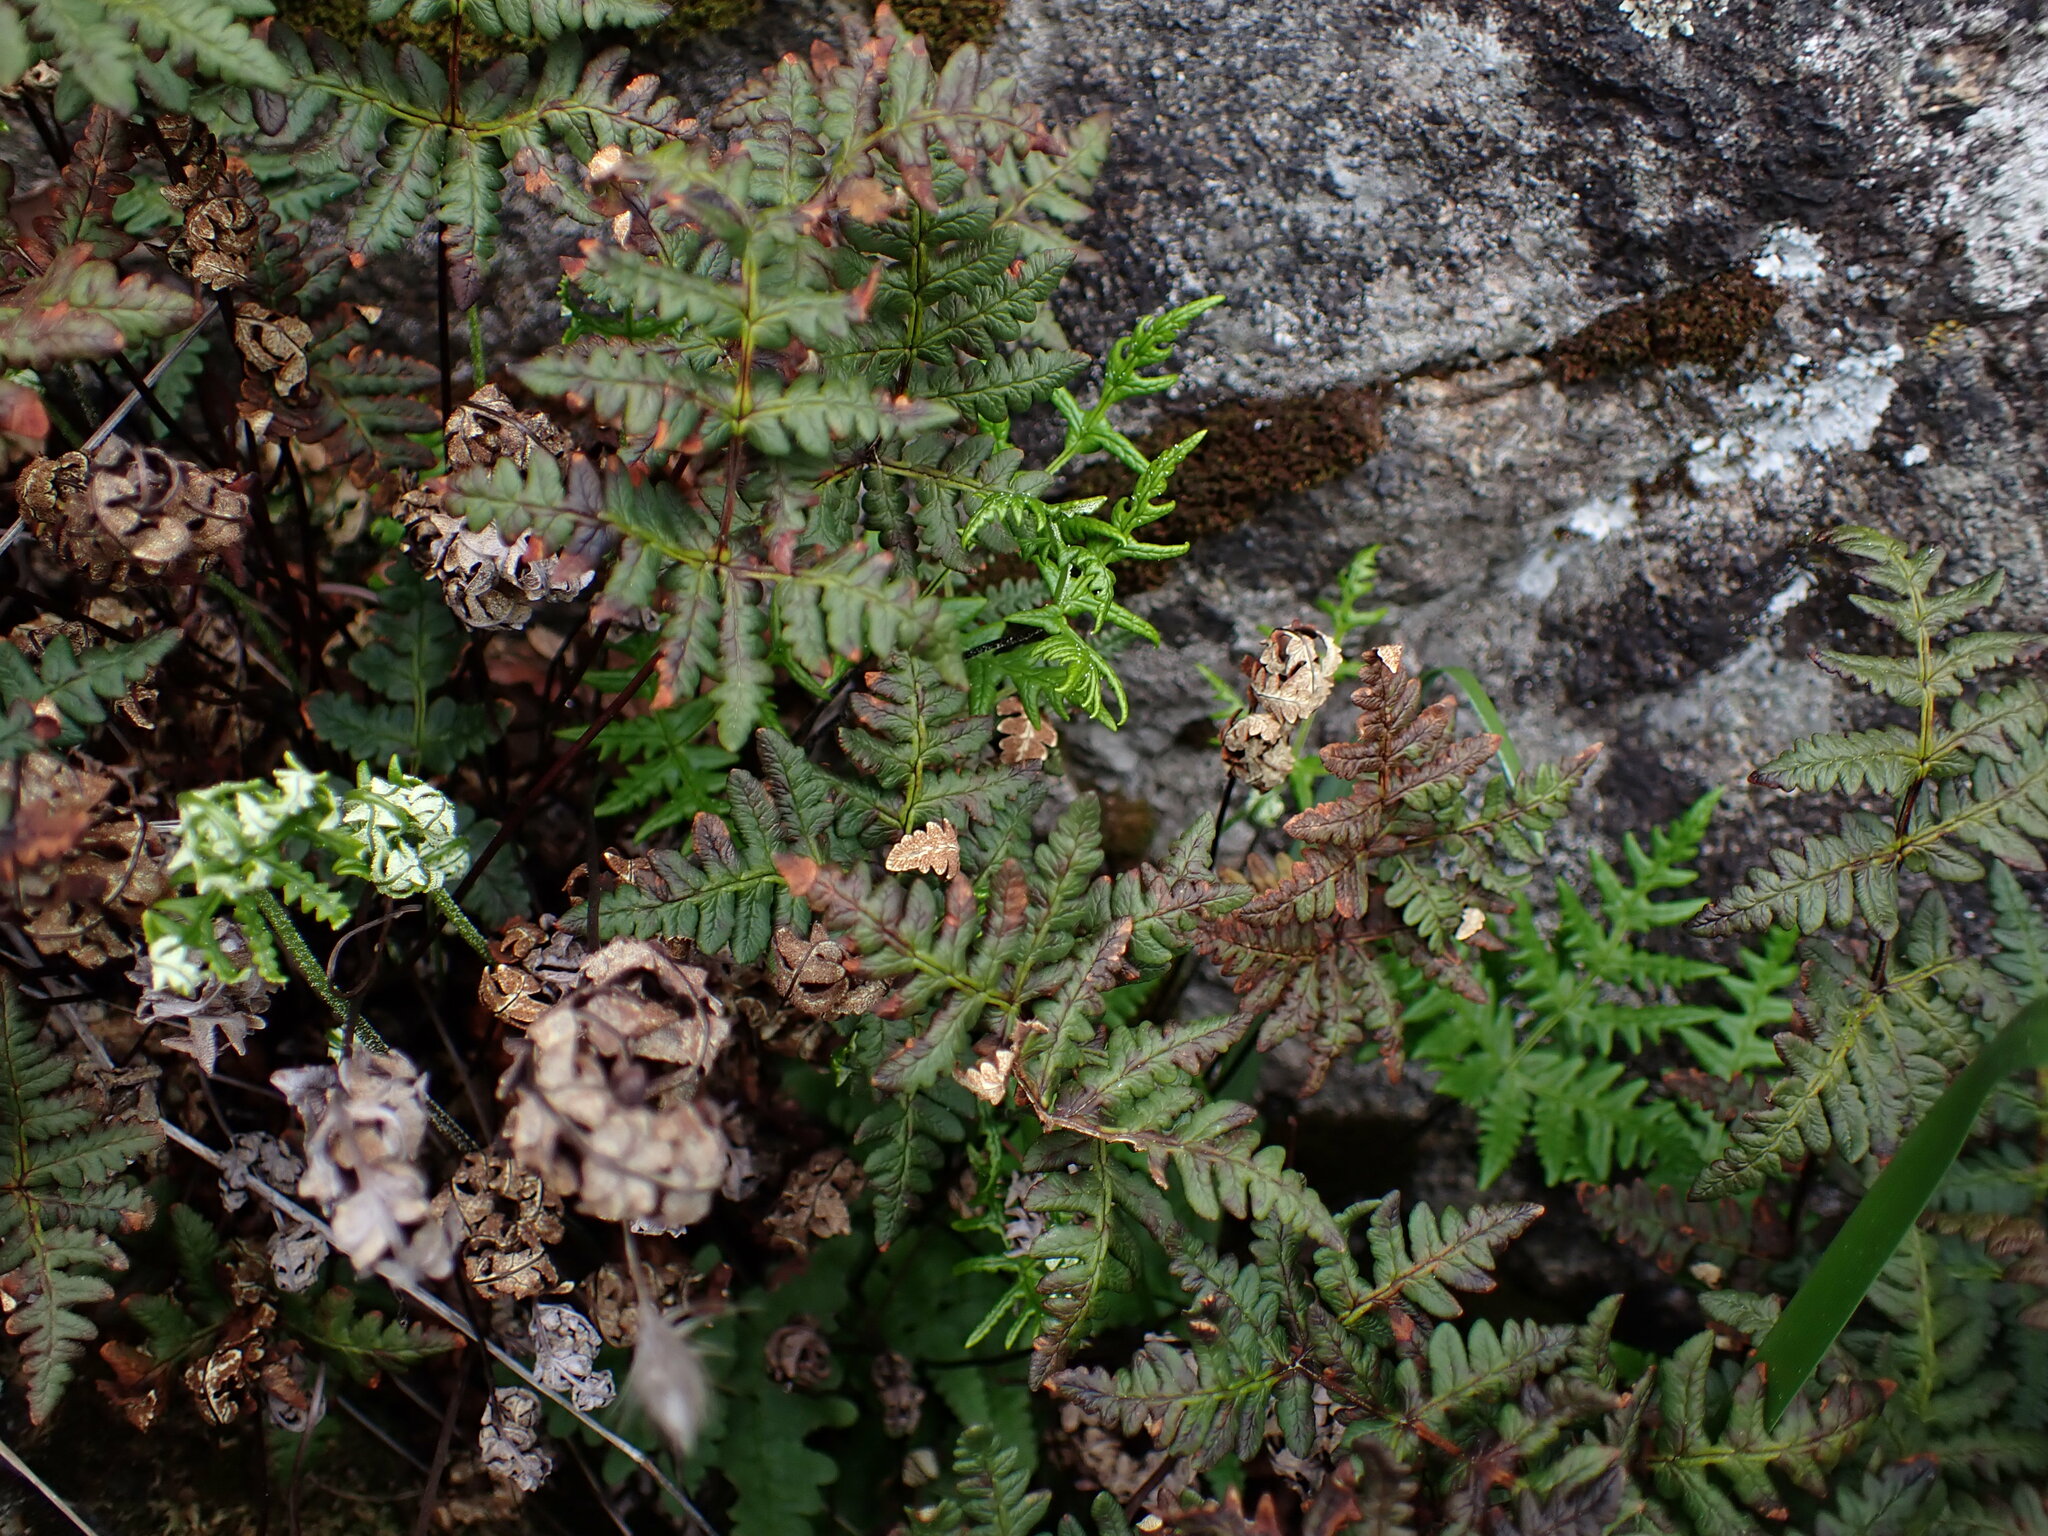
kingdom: Plantae
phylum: Tracheophyta
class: Polypodiopsida
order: Polypodiales
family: Pteridaceae
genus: Pentagramma
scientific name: Pentagramma triangularis
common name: Gold fern
